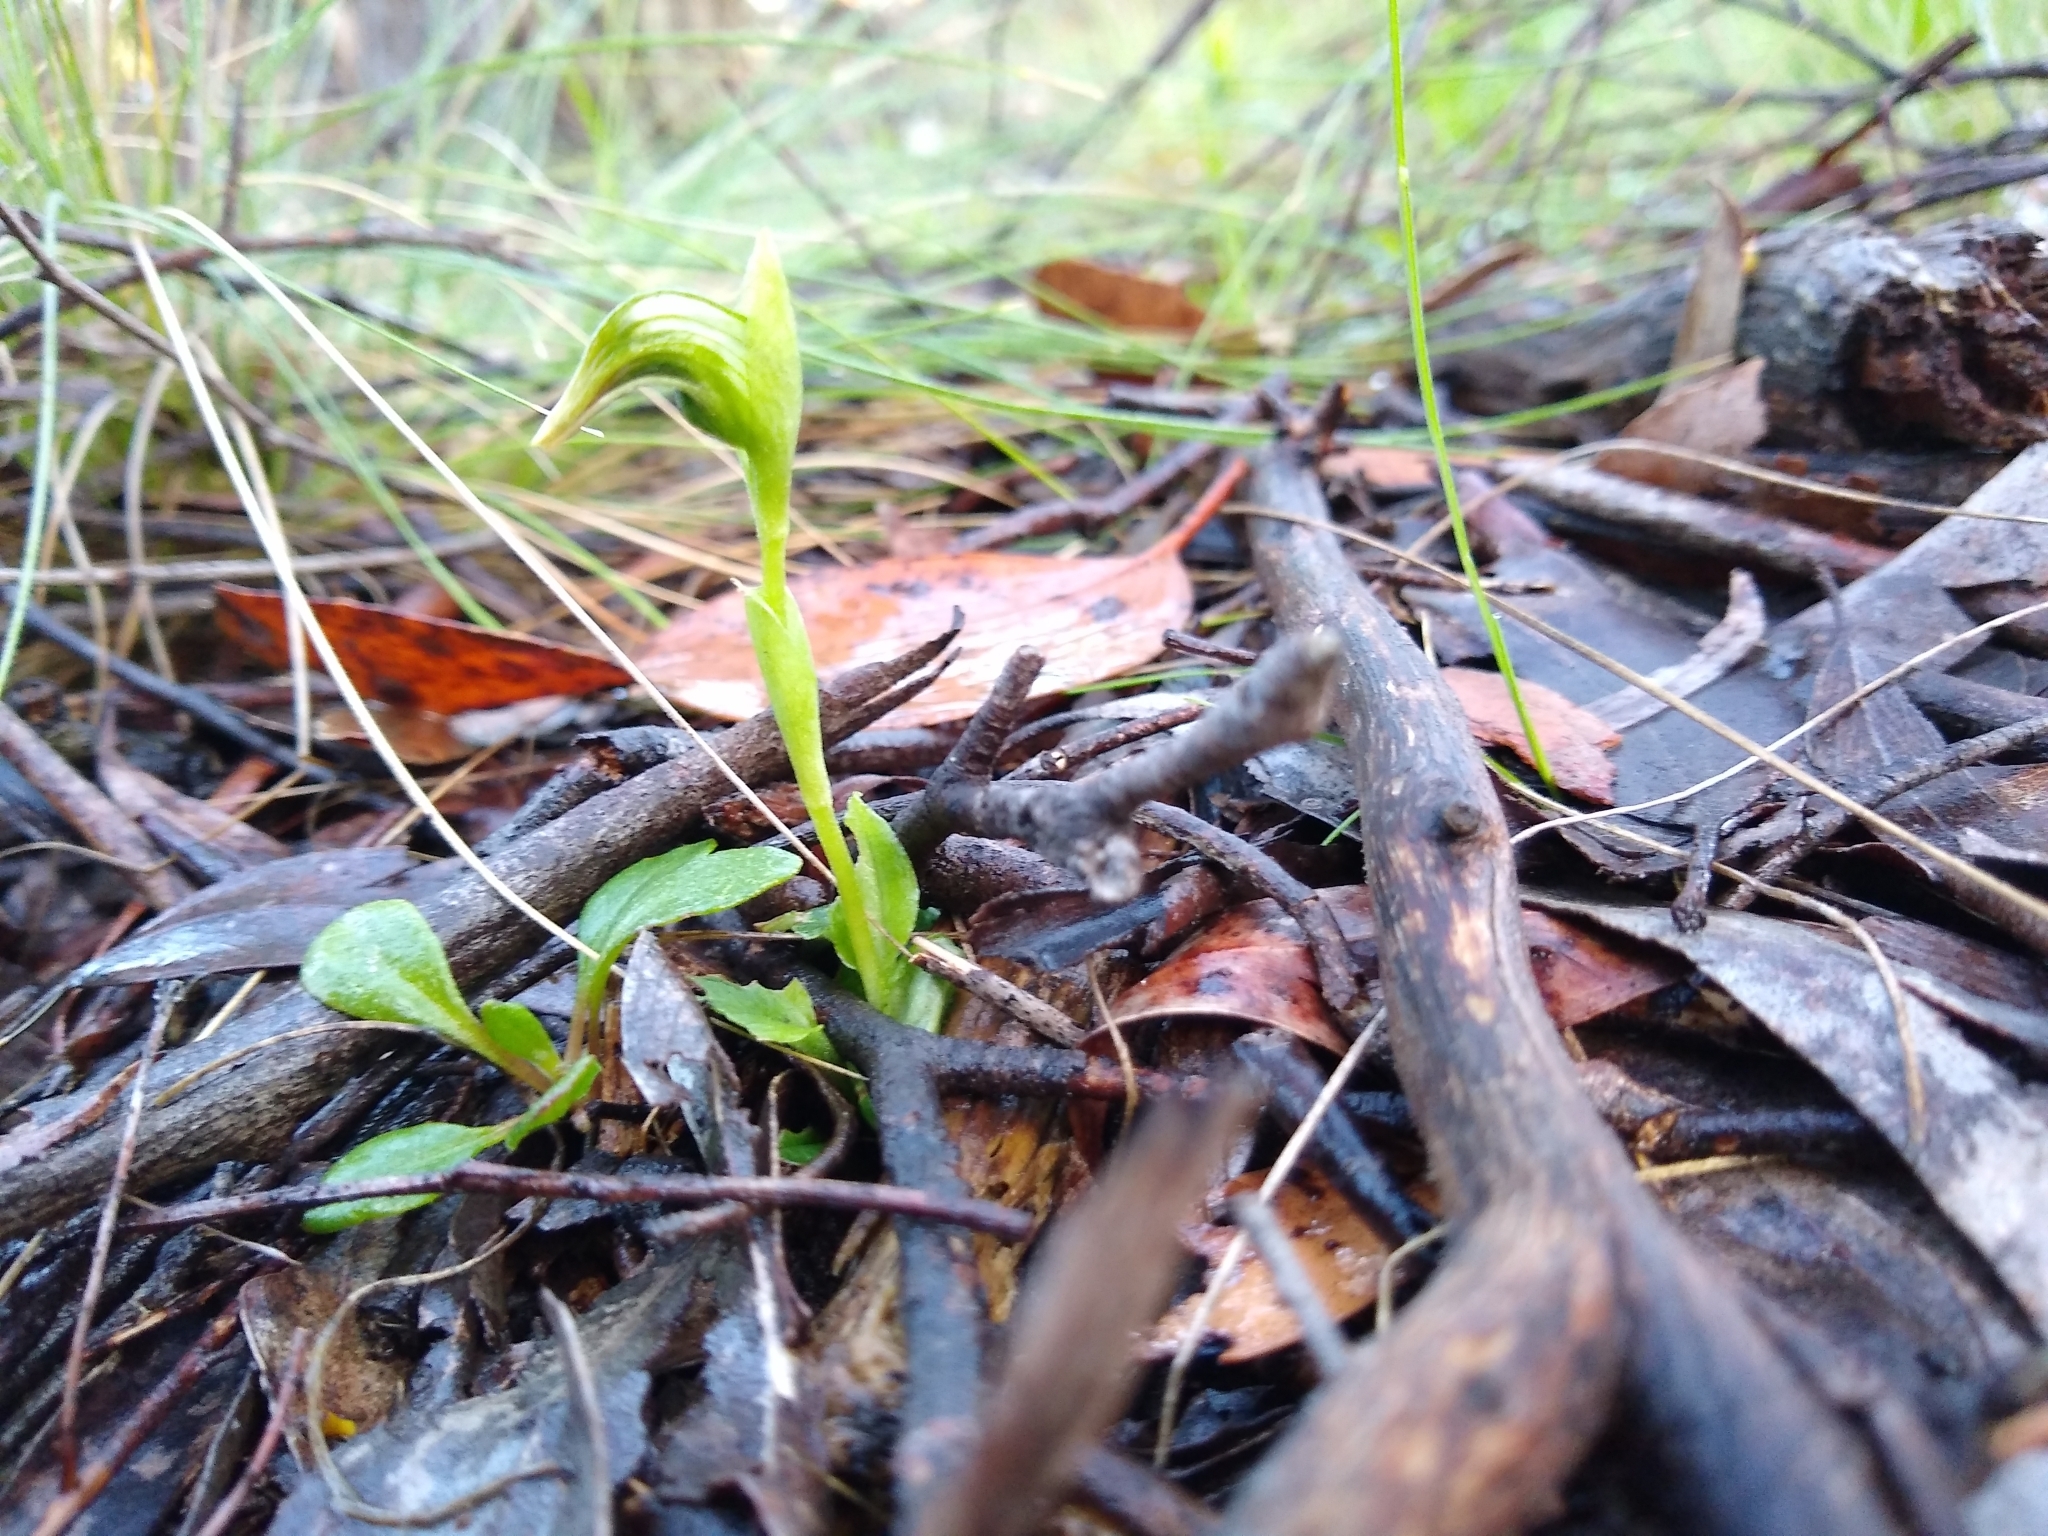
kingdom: Plantae
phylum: Tracheophyta
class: Liliopsida
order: Asparagales
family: Orchidaceae
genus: Pterostylis
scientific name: Pterostylis nutans
